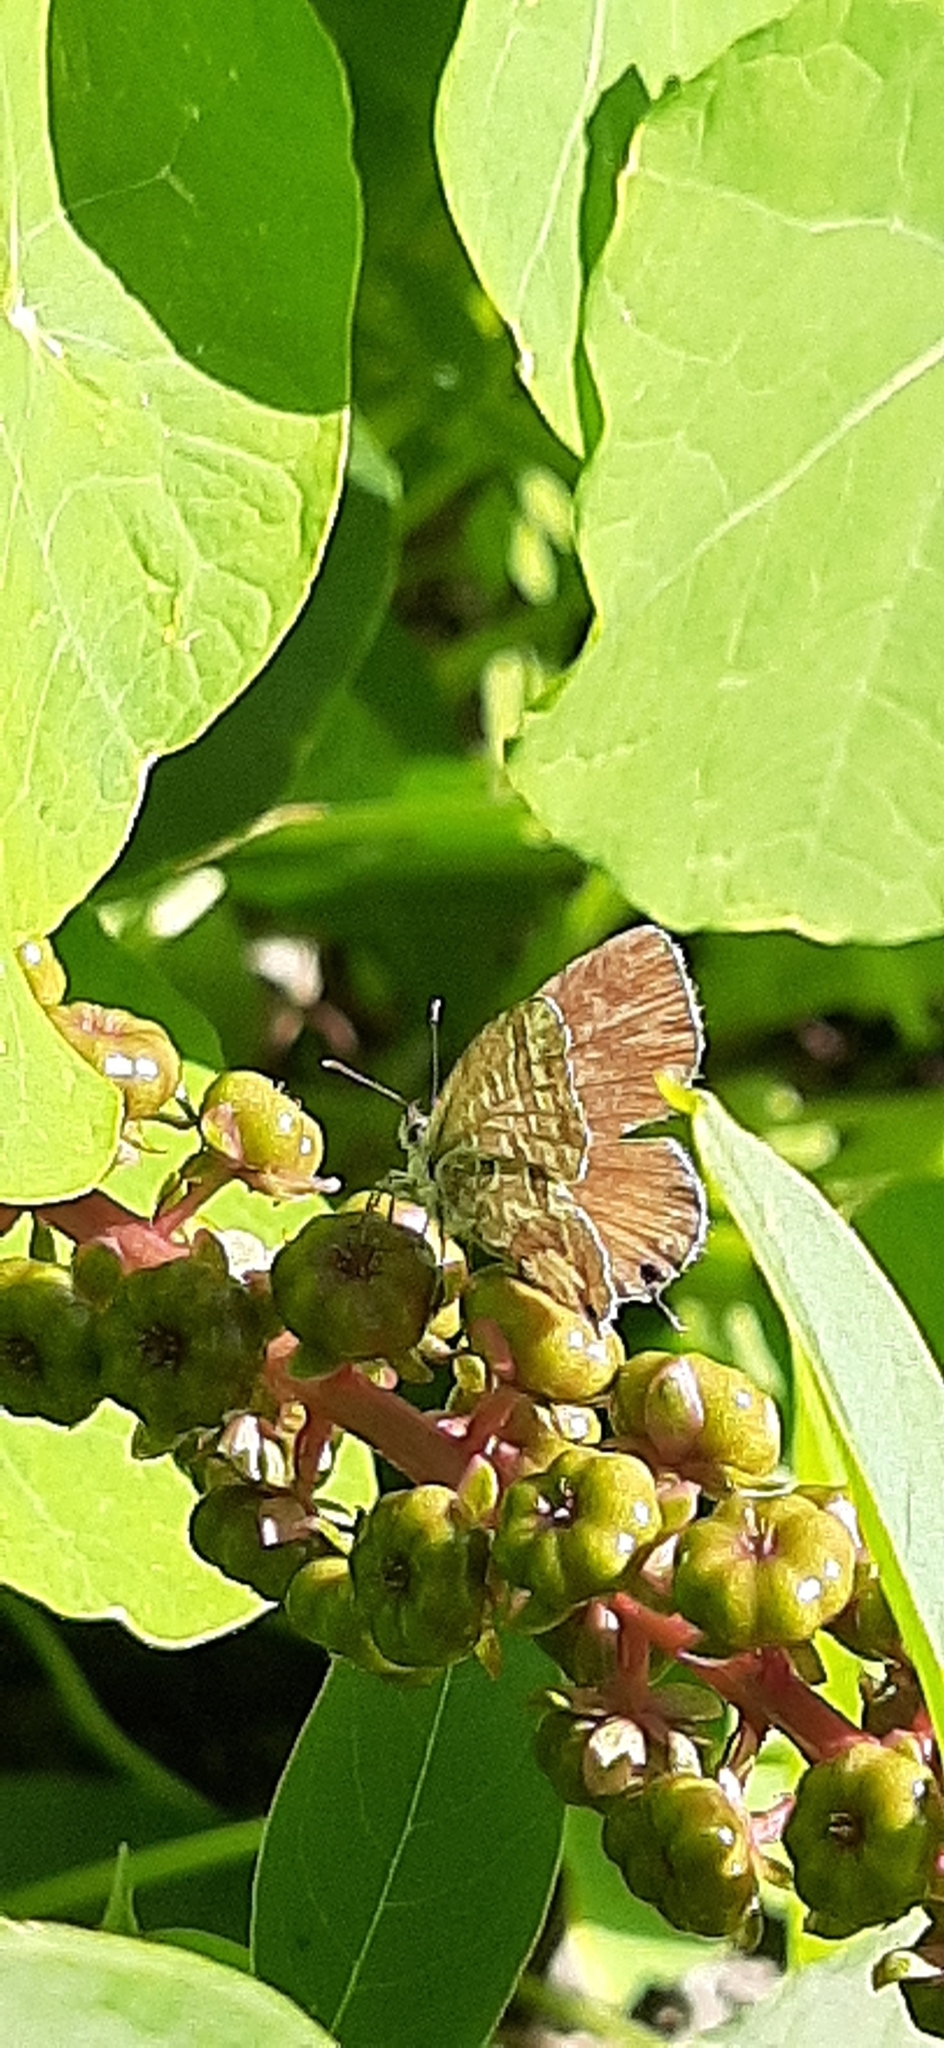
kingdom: Animalia
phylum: Arthropoda
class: Insecta
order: Lepidoptera
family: Lycaenidae
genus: Cacyreus
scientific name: Cacyreus marshalli
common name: Geranium bronze
